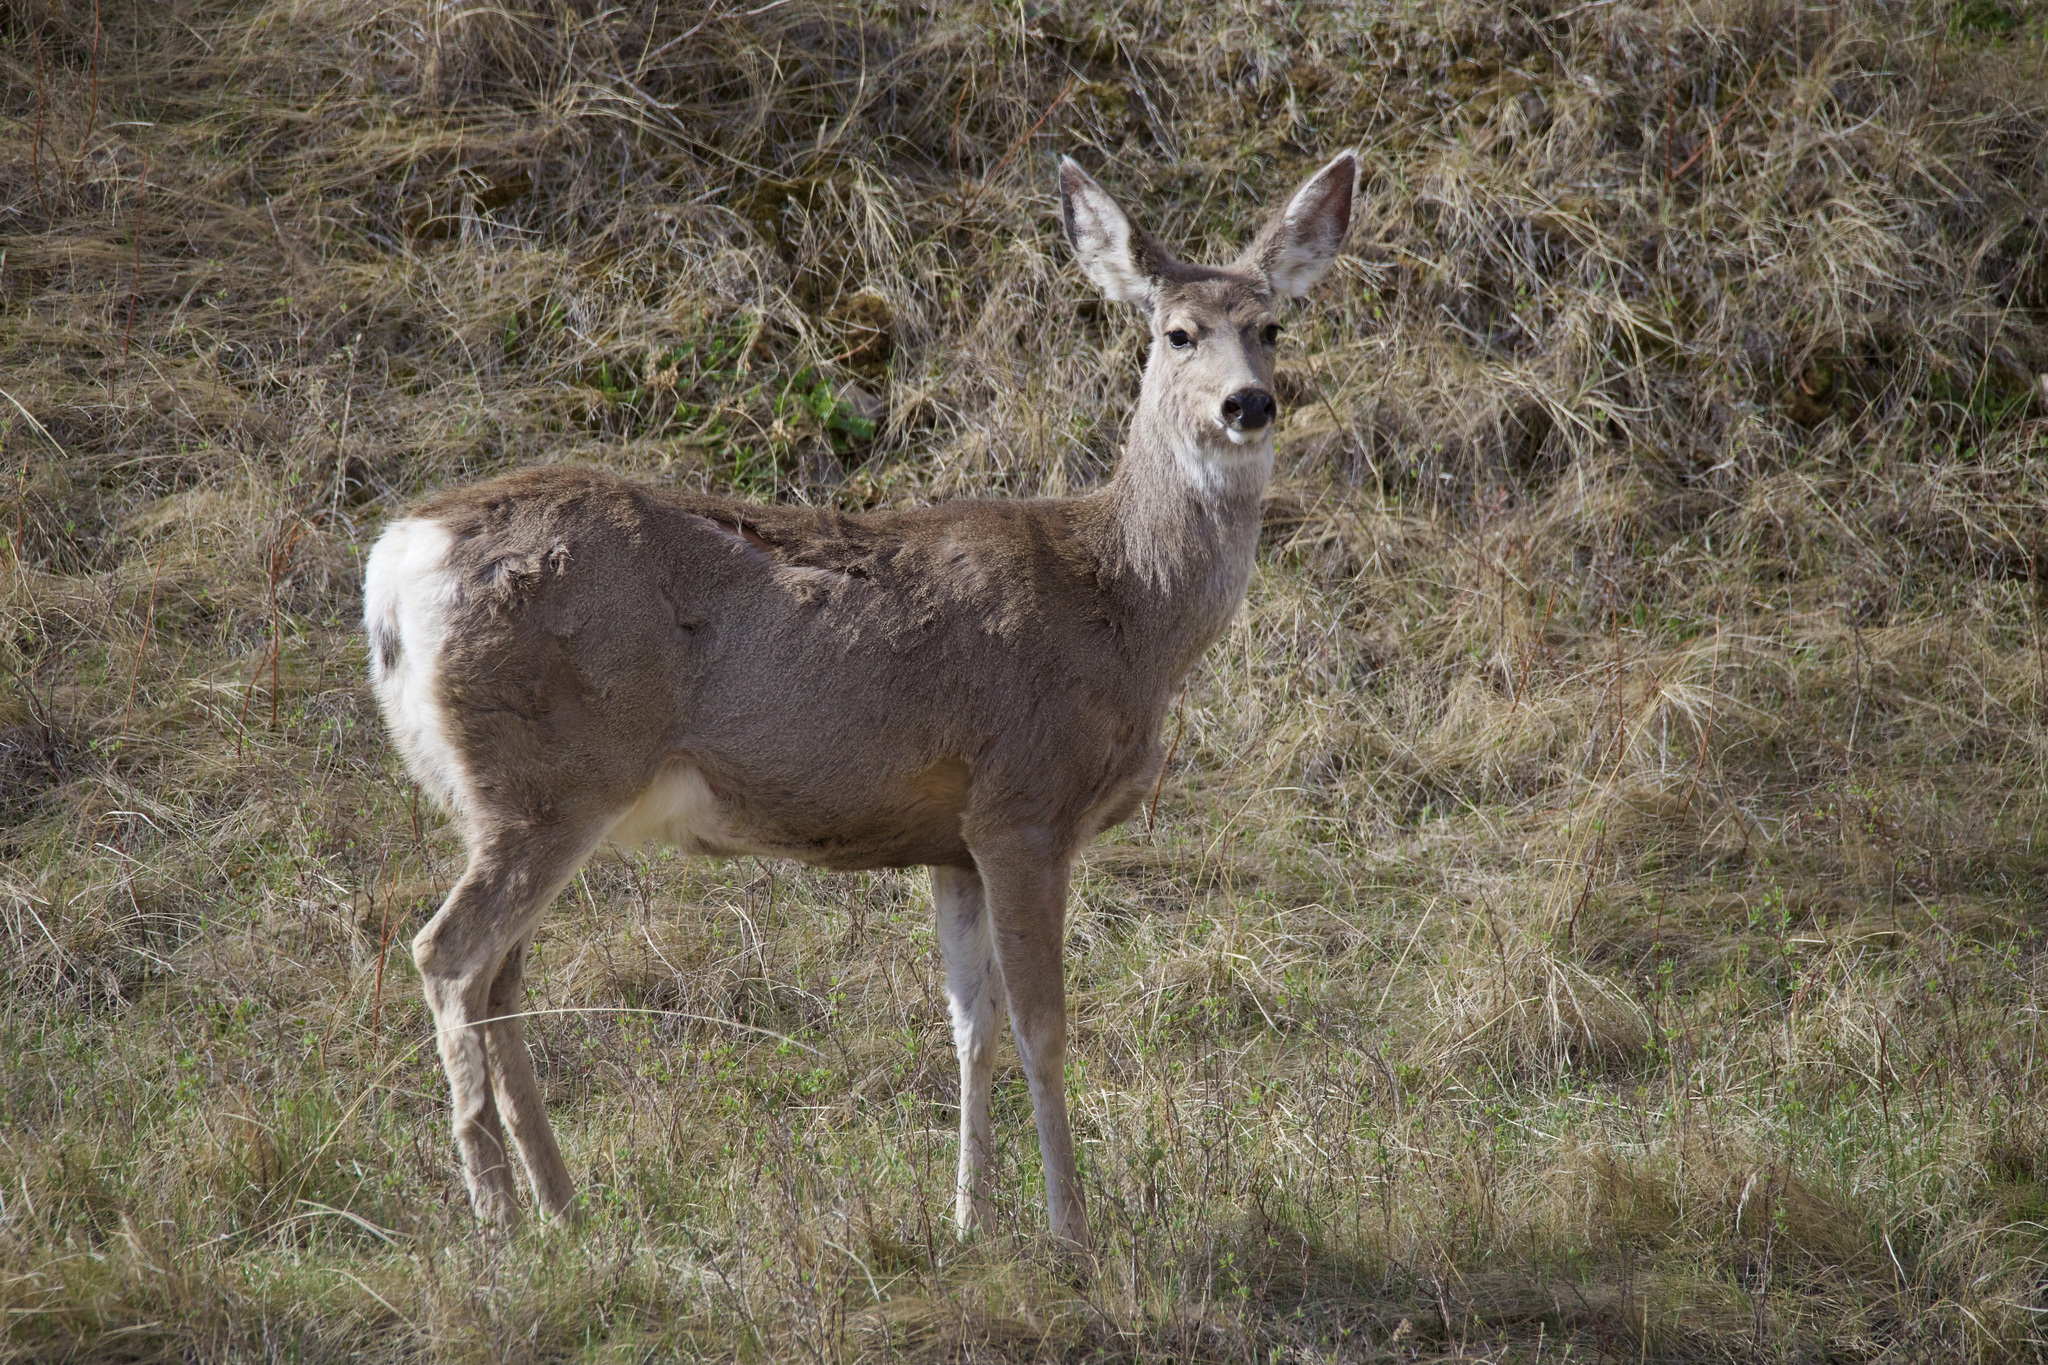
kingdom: Animalia
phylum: Chordata
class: Mammalia
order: Artiodactyla
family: Cervidae
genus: Odocoileus
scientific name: Odocoileus hemionus
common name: Mule deer
